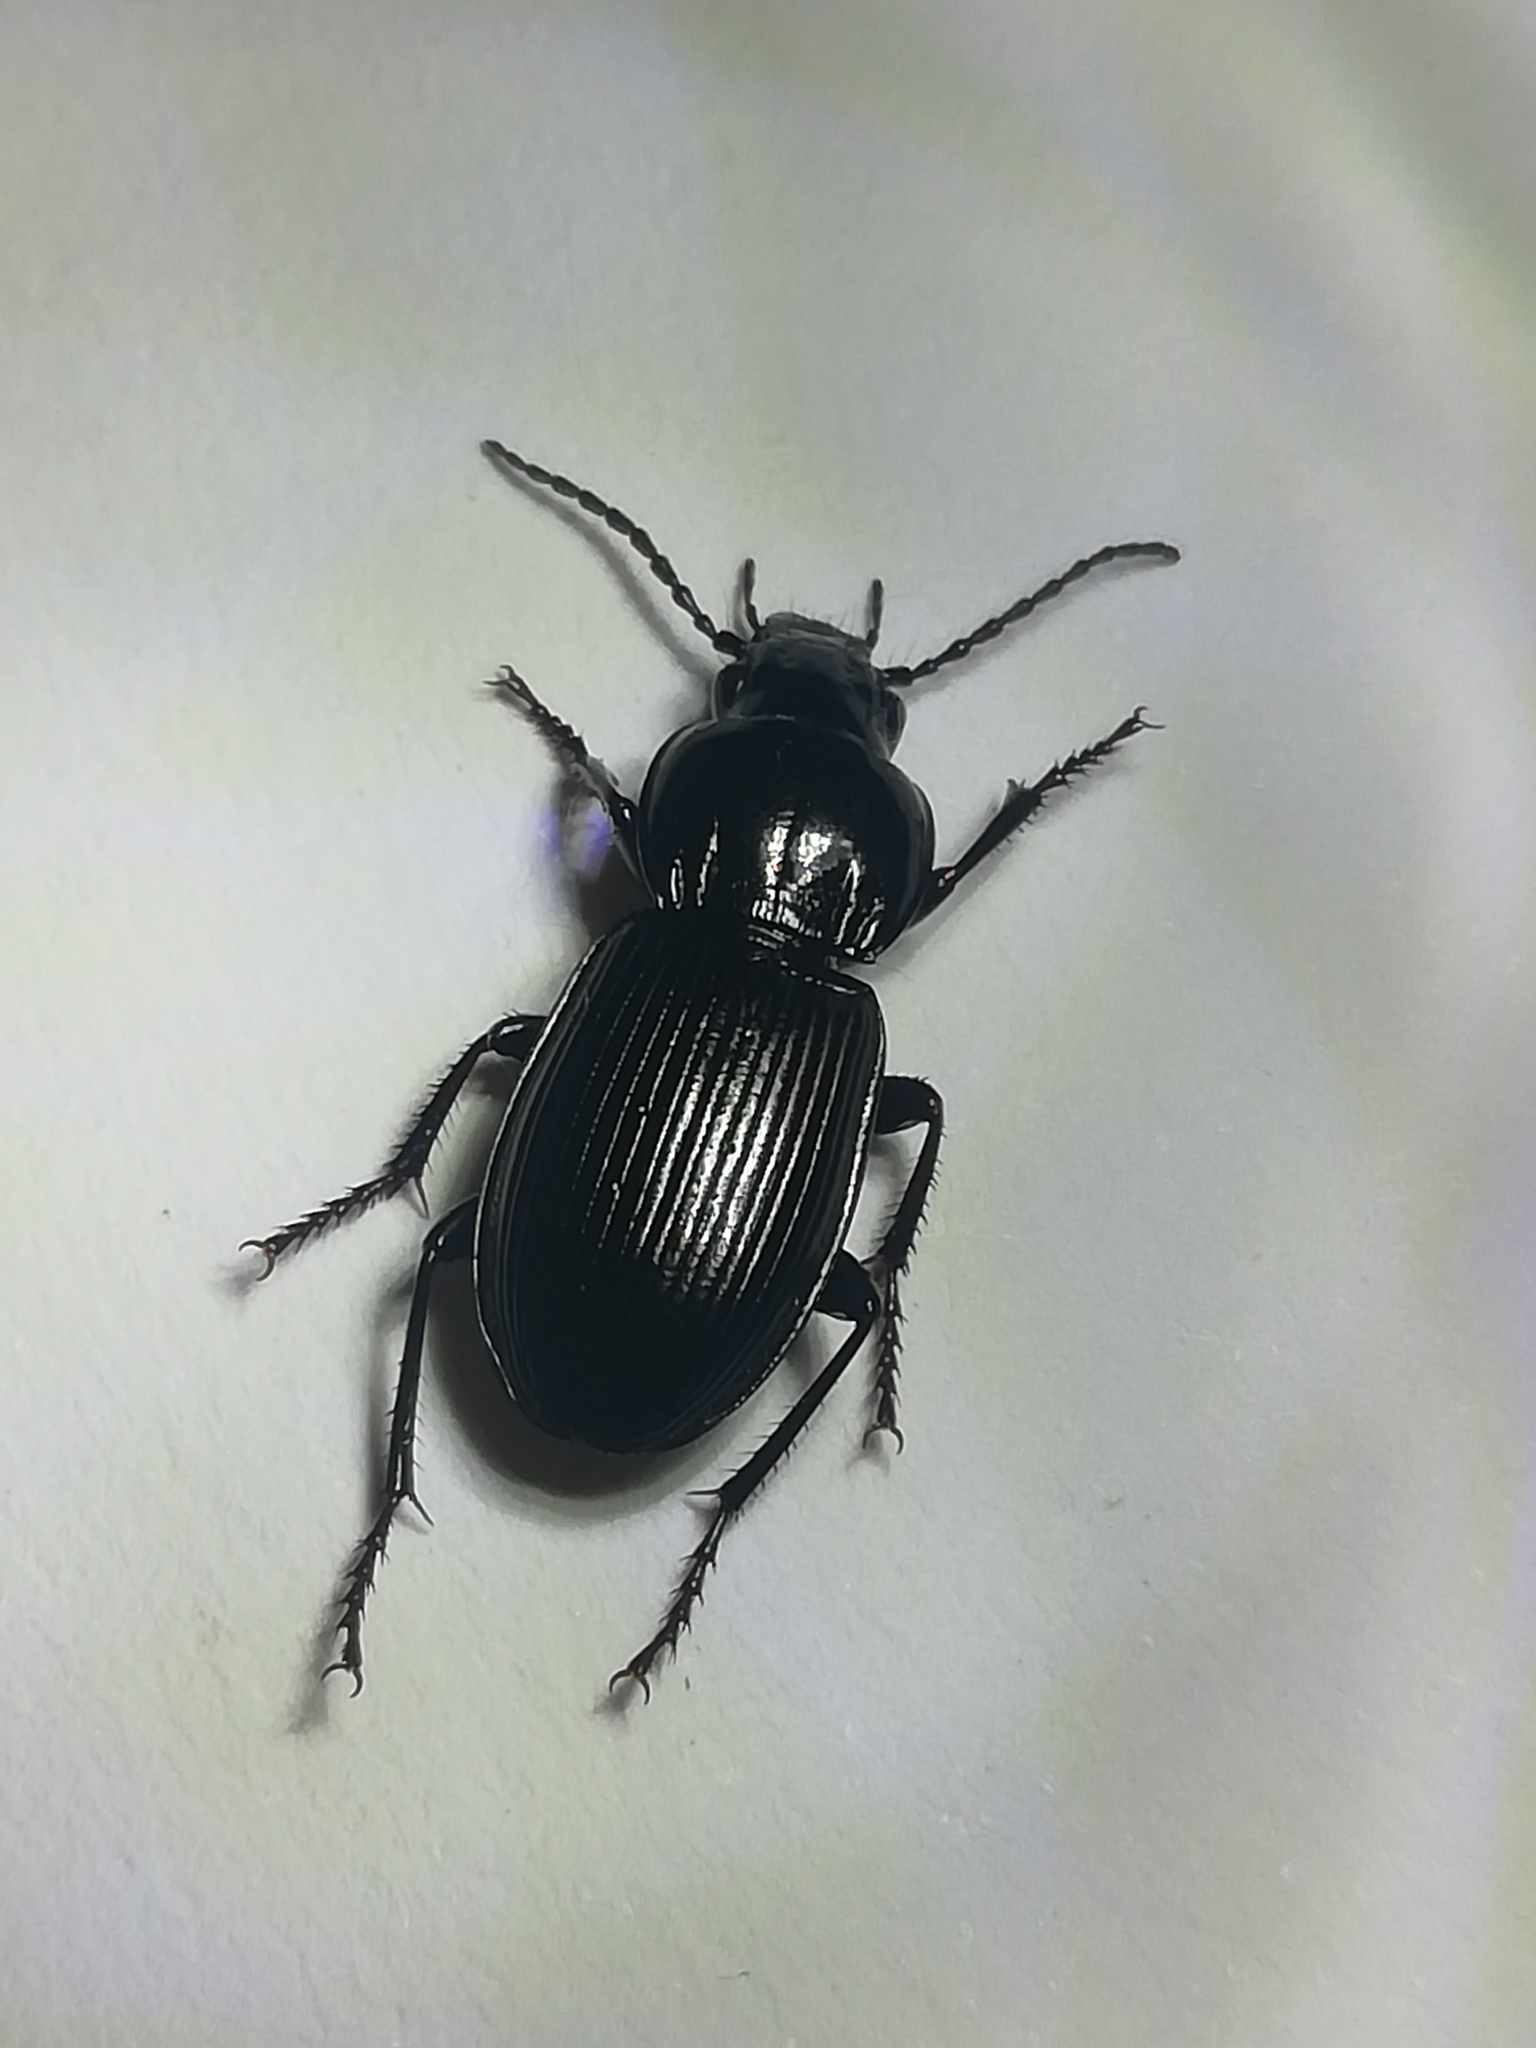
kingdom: Animalia
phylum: Arthropoda
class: Insecta
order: Coleoptera
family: Carabidae
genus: Pterostichus
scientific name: Pterostichus melas
